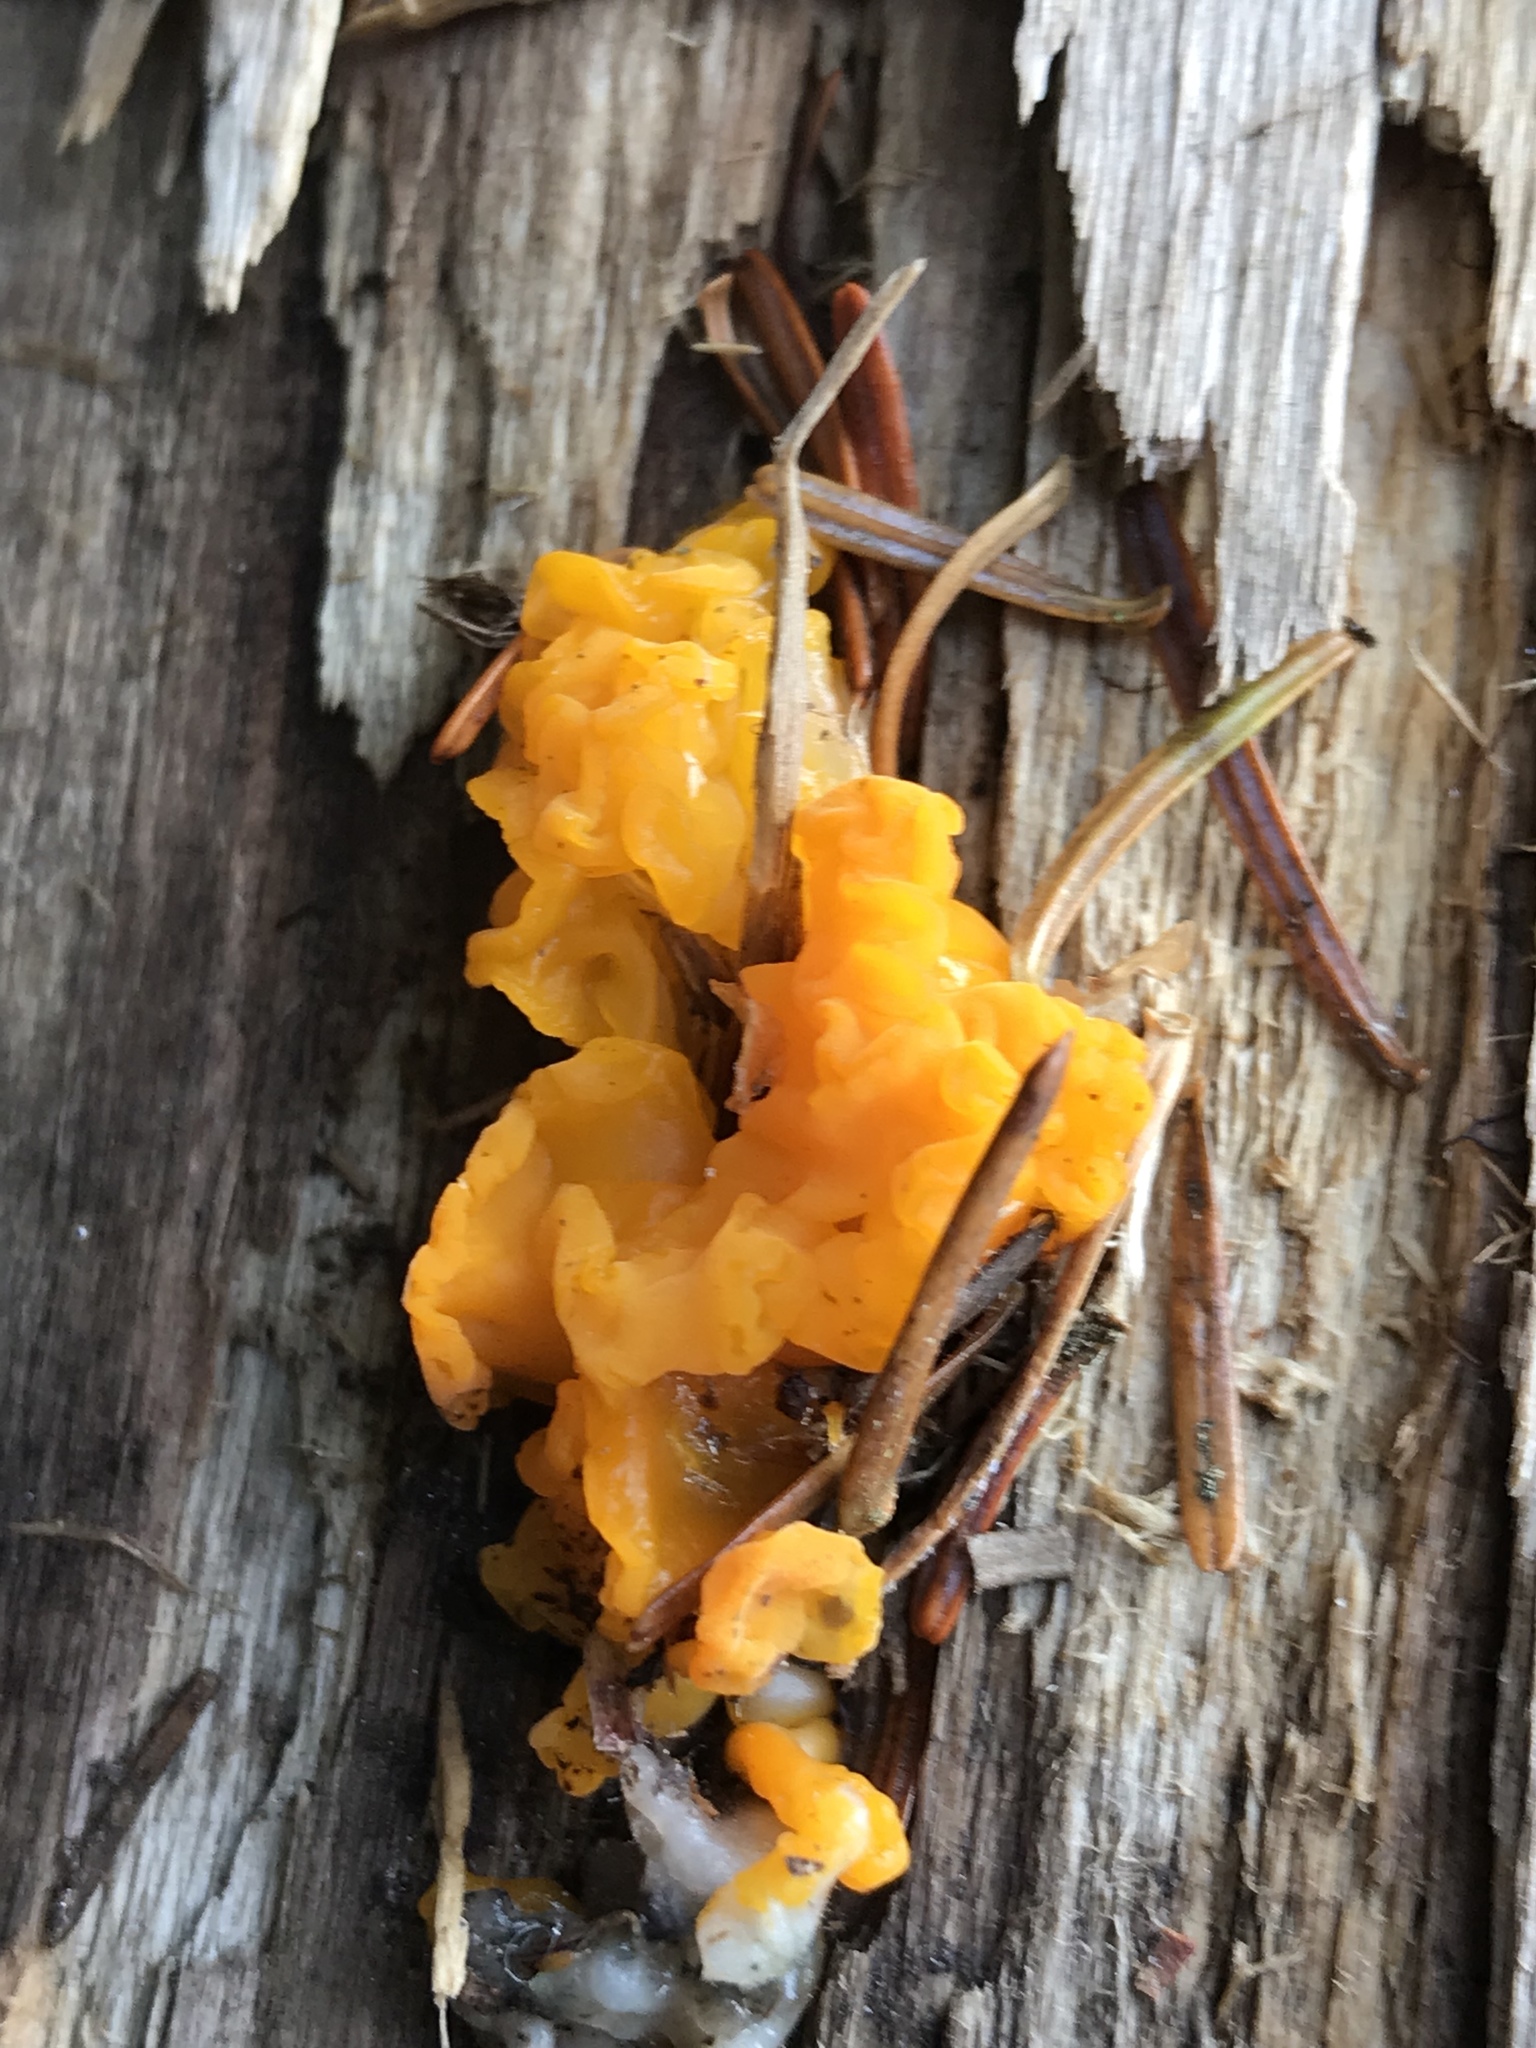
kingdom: Fungi
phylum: Basidiomycota
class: Tremellomycetes
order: Tremellales
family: Naemateliaceae
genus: Naematelia
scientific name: Naematelia aurantia
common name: Golden ear
